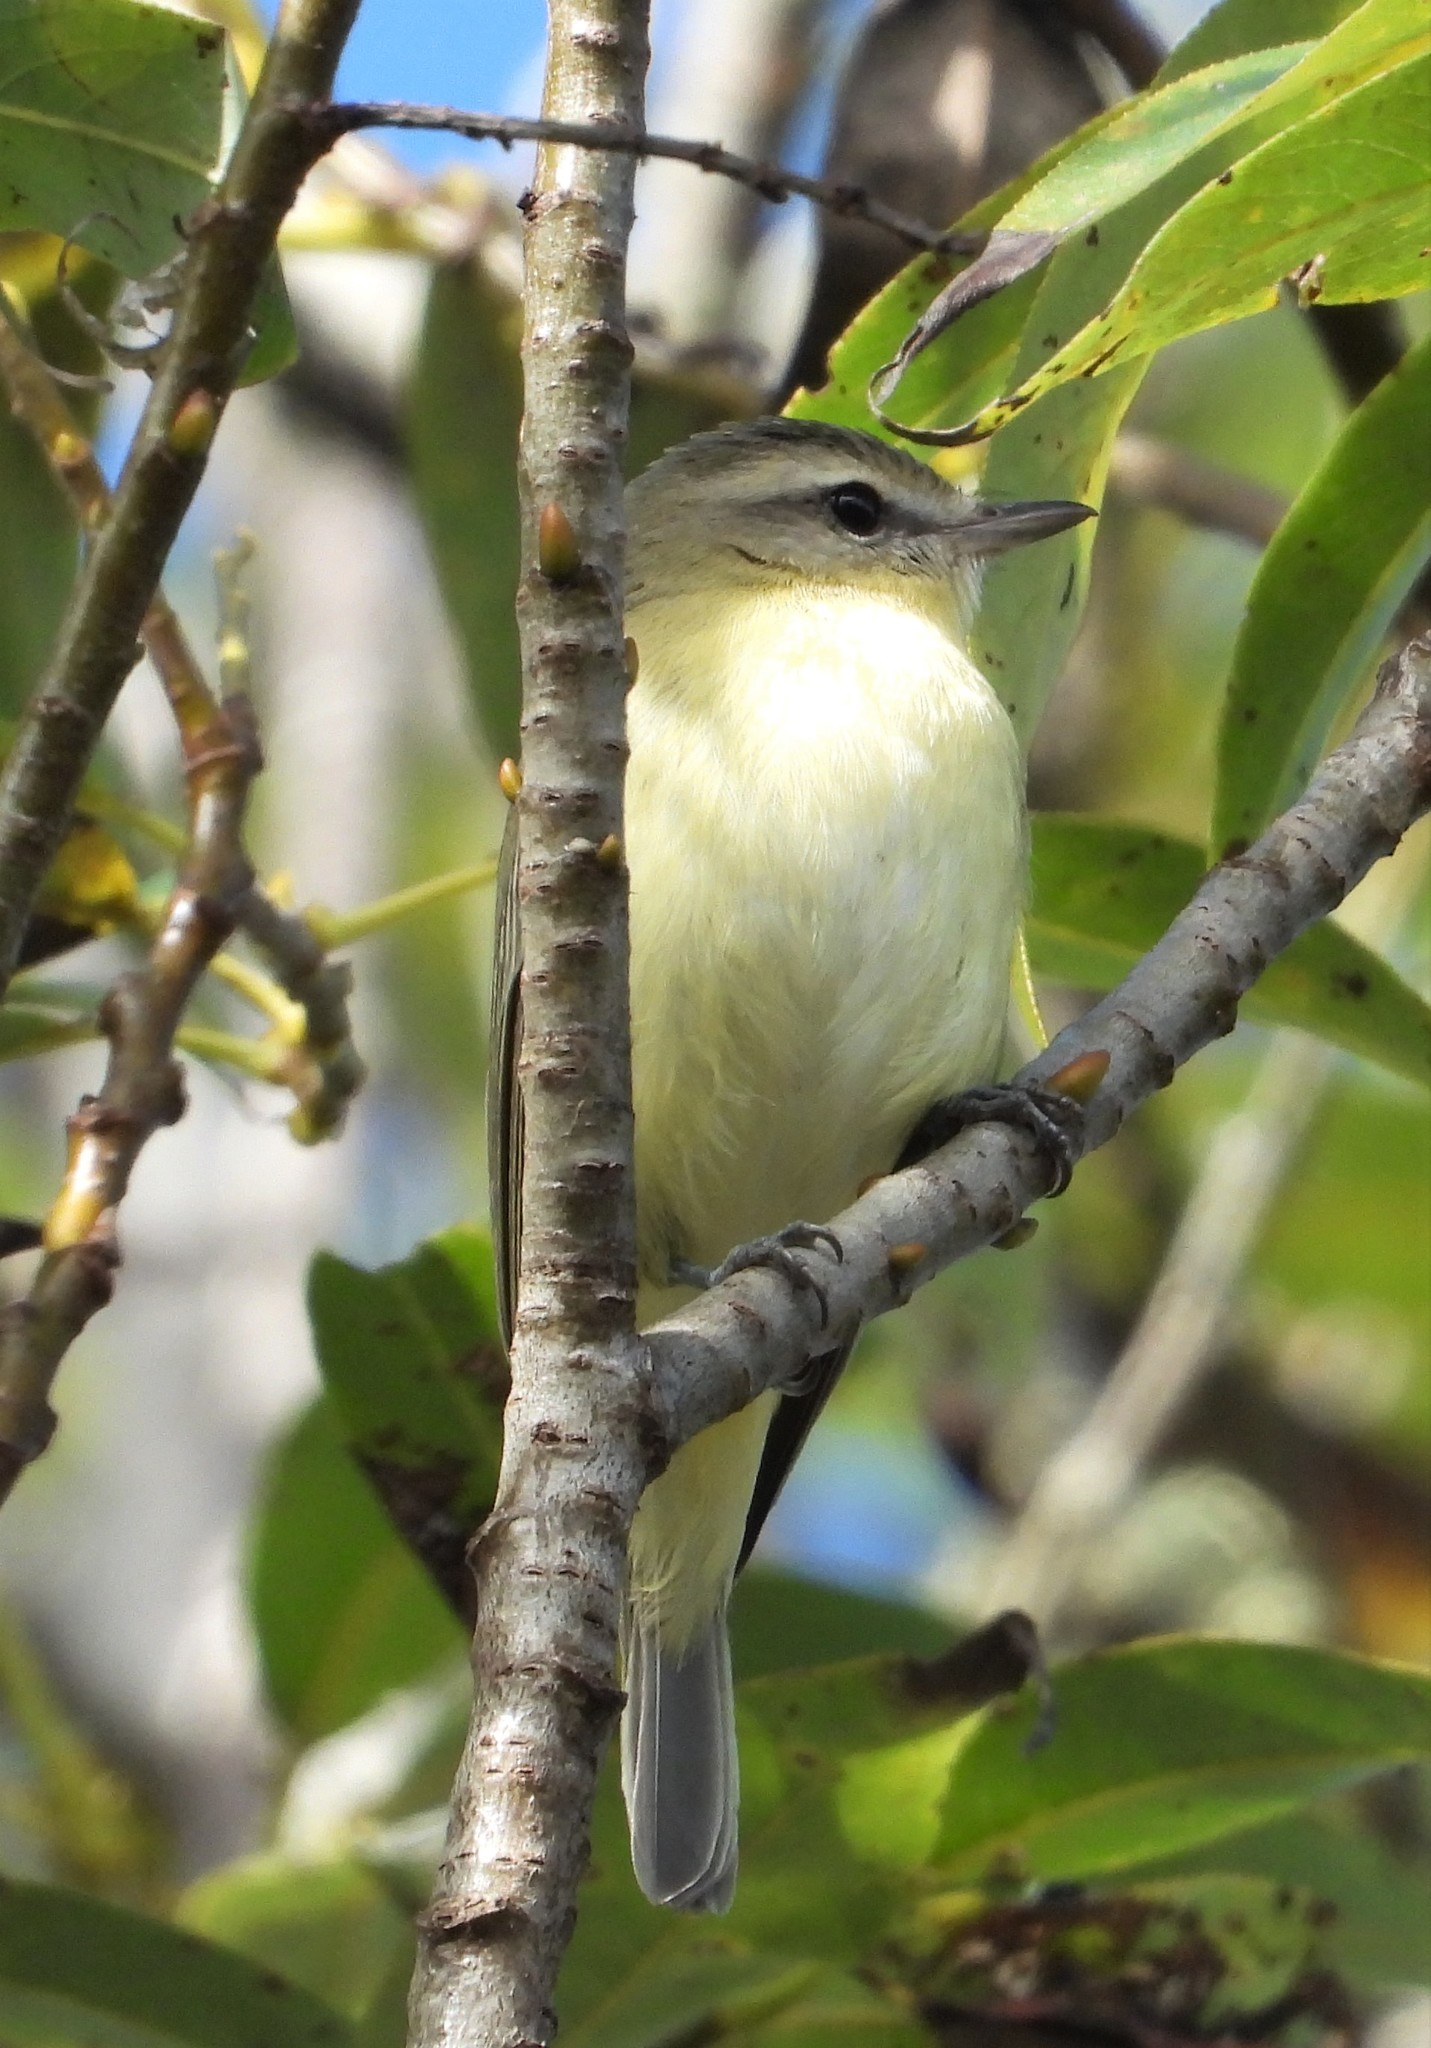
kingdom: Animalia
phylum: Chordata
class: Aves
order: Passeriformes
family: Vireonidae
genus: Vireo
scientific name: Vireo philadelphicus
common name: Philadelphia vireo
